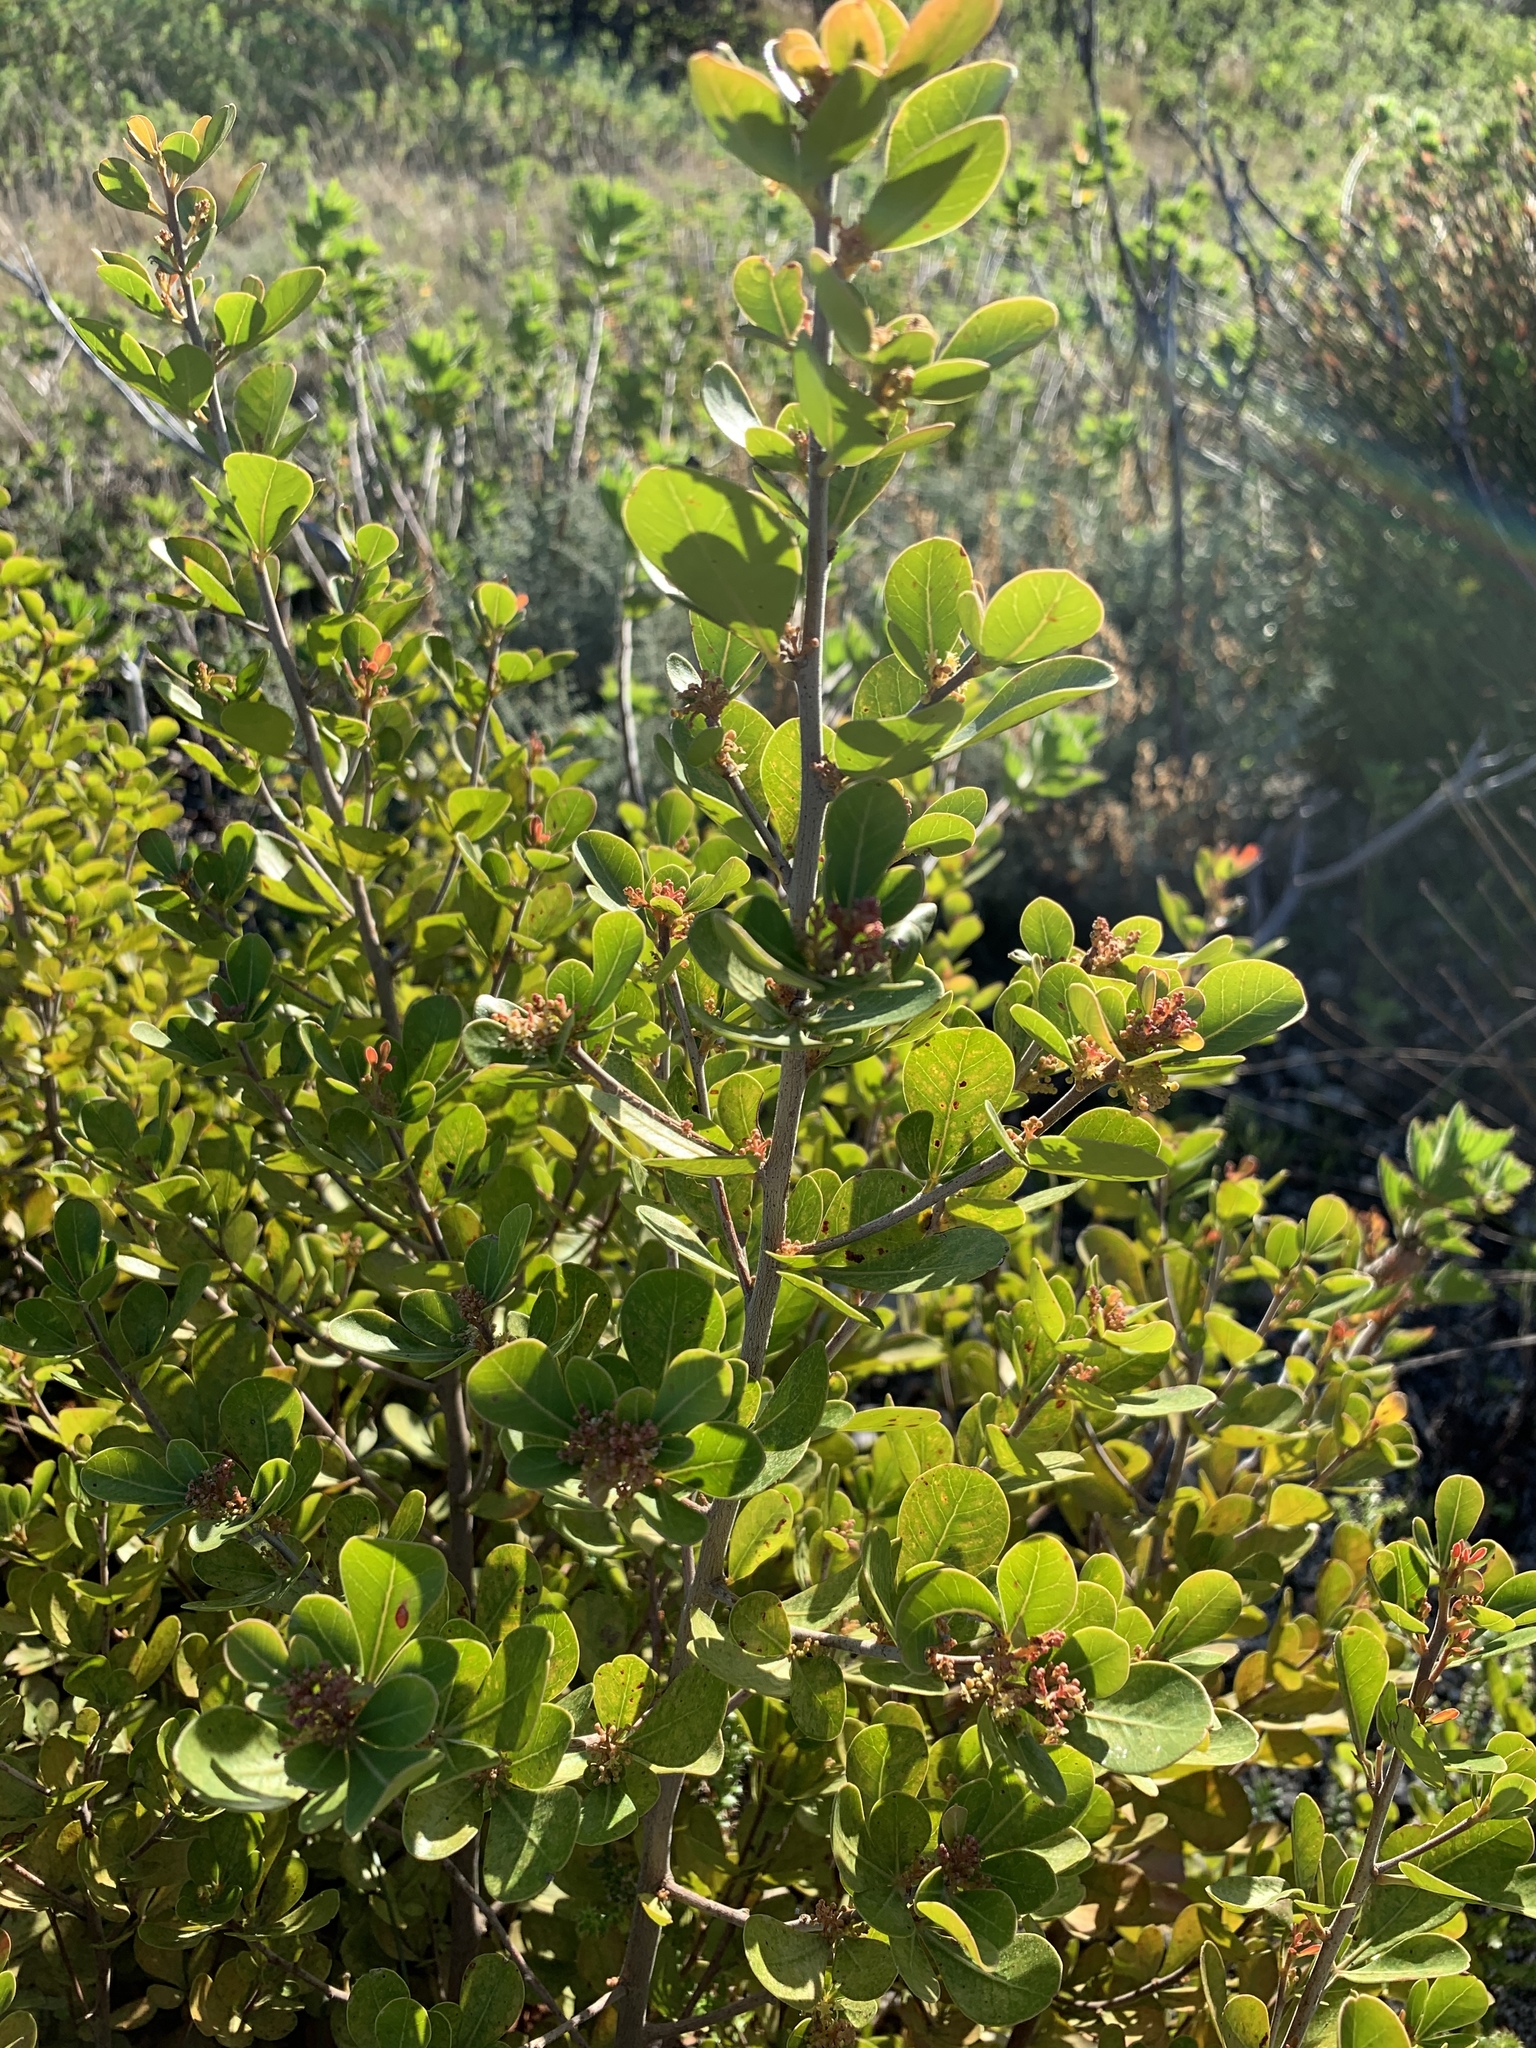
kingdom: Plantae
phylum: Tracheophyta
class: Magnoliopsida
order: Sapindales
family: Anacardiaceae
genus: Searsia
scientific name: Searsia lucida
